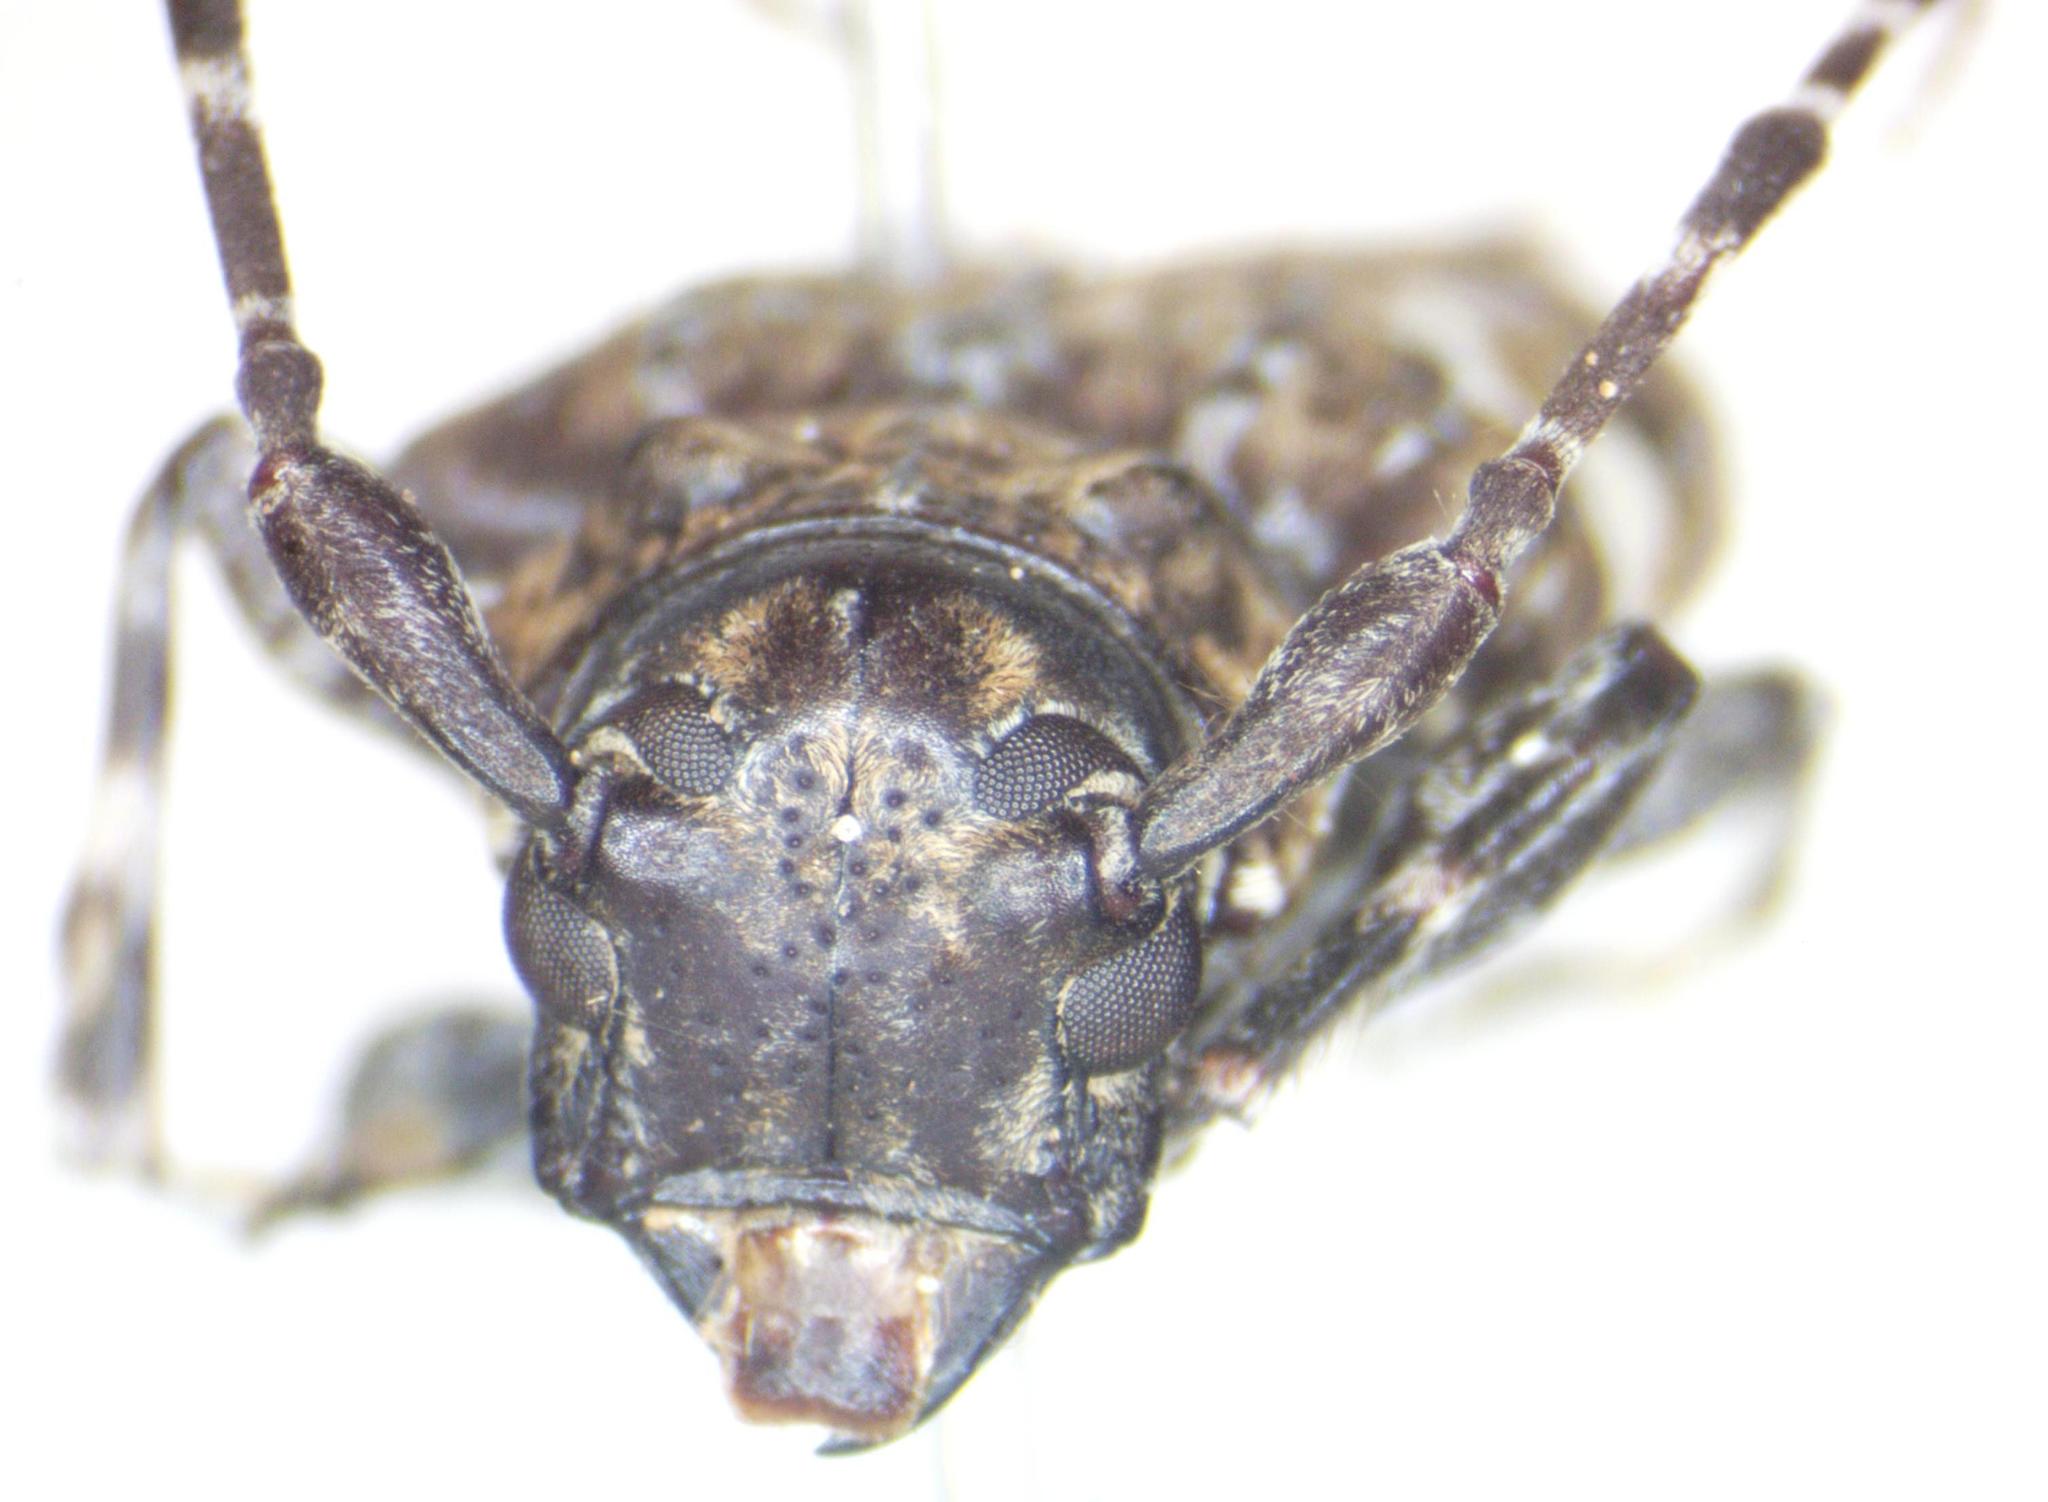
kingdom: Animalia
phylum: Arthropoda
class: Insecta
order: Coleoptera
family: Cerambycidae
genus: Acanthoderes
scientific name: Acanthoderes quadrigibba
